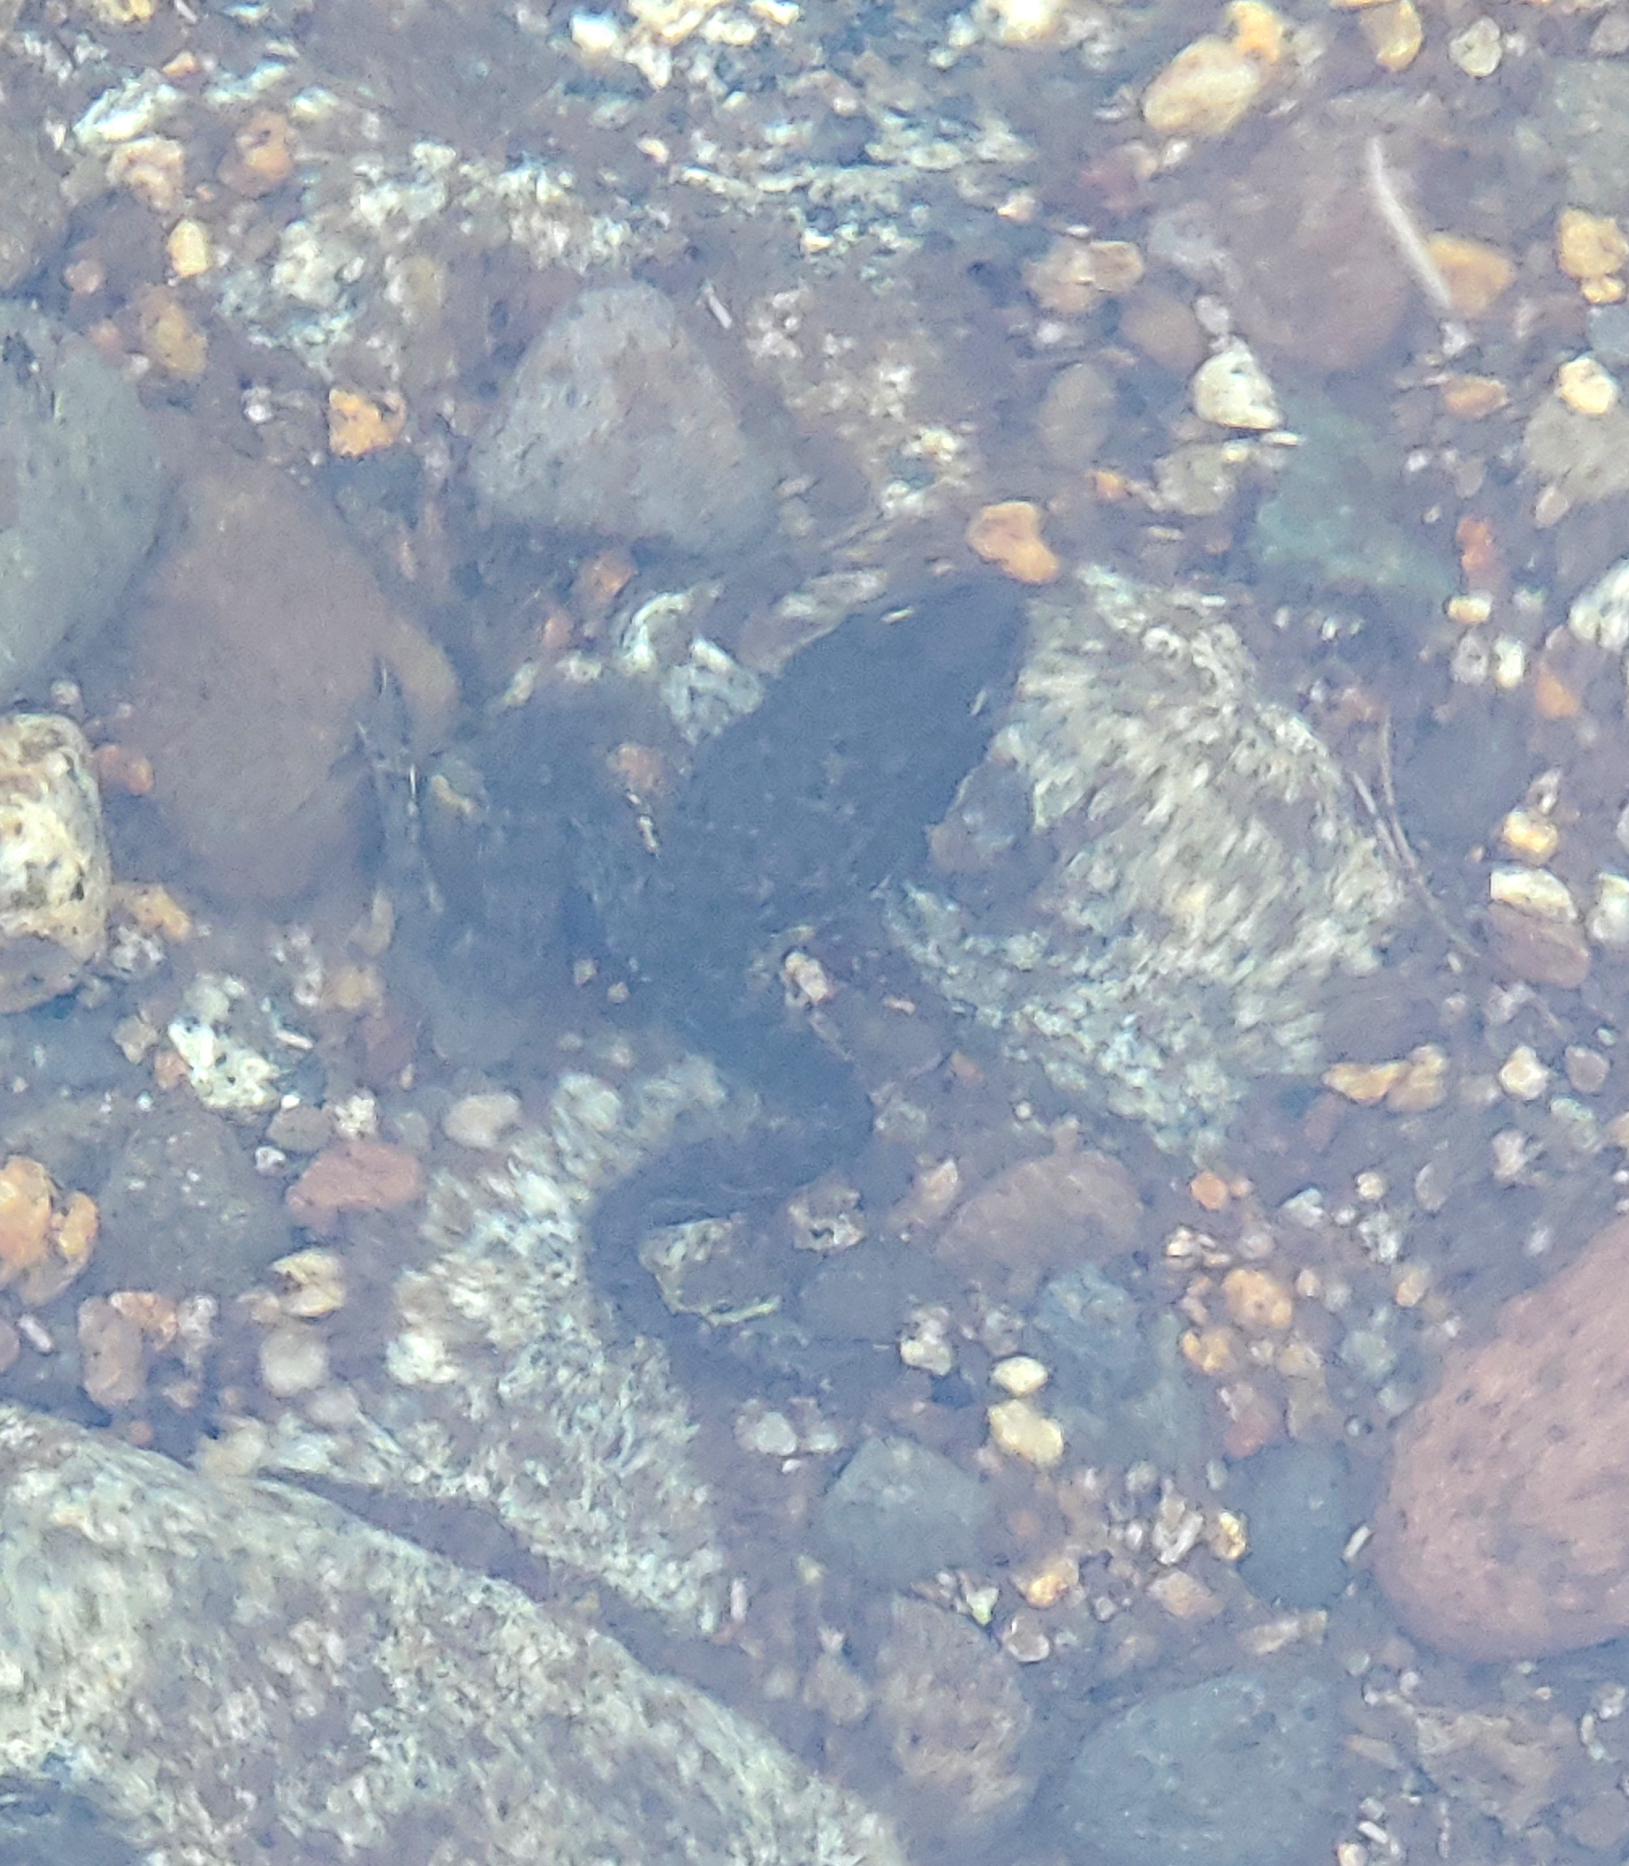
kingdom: Animalia
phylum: Chordata
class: Amphibia
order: Anura
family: Ranidae
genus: Rana
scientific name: Rana sierrae
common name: Sierra nevada yellow-legged frog
